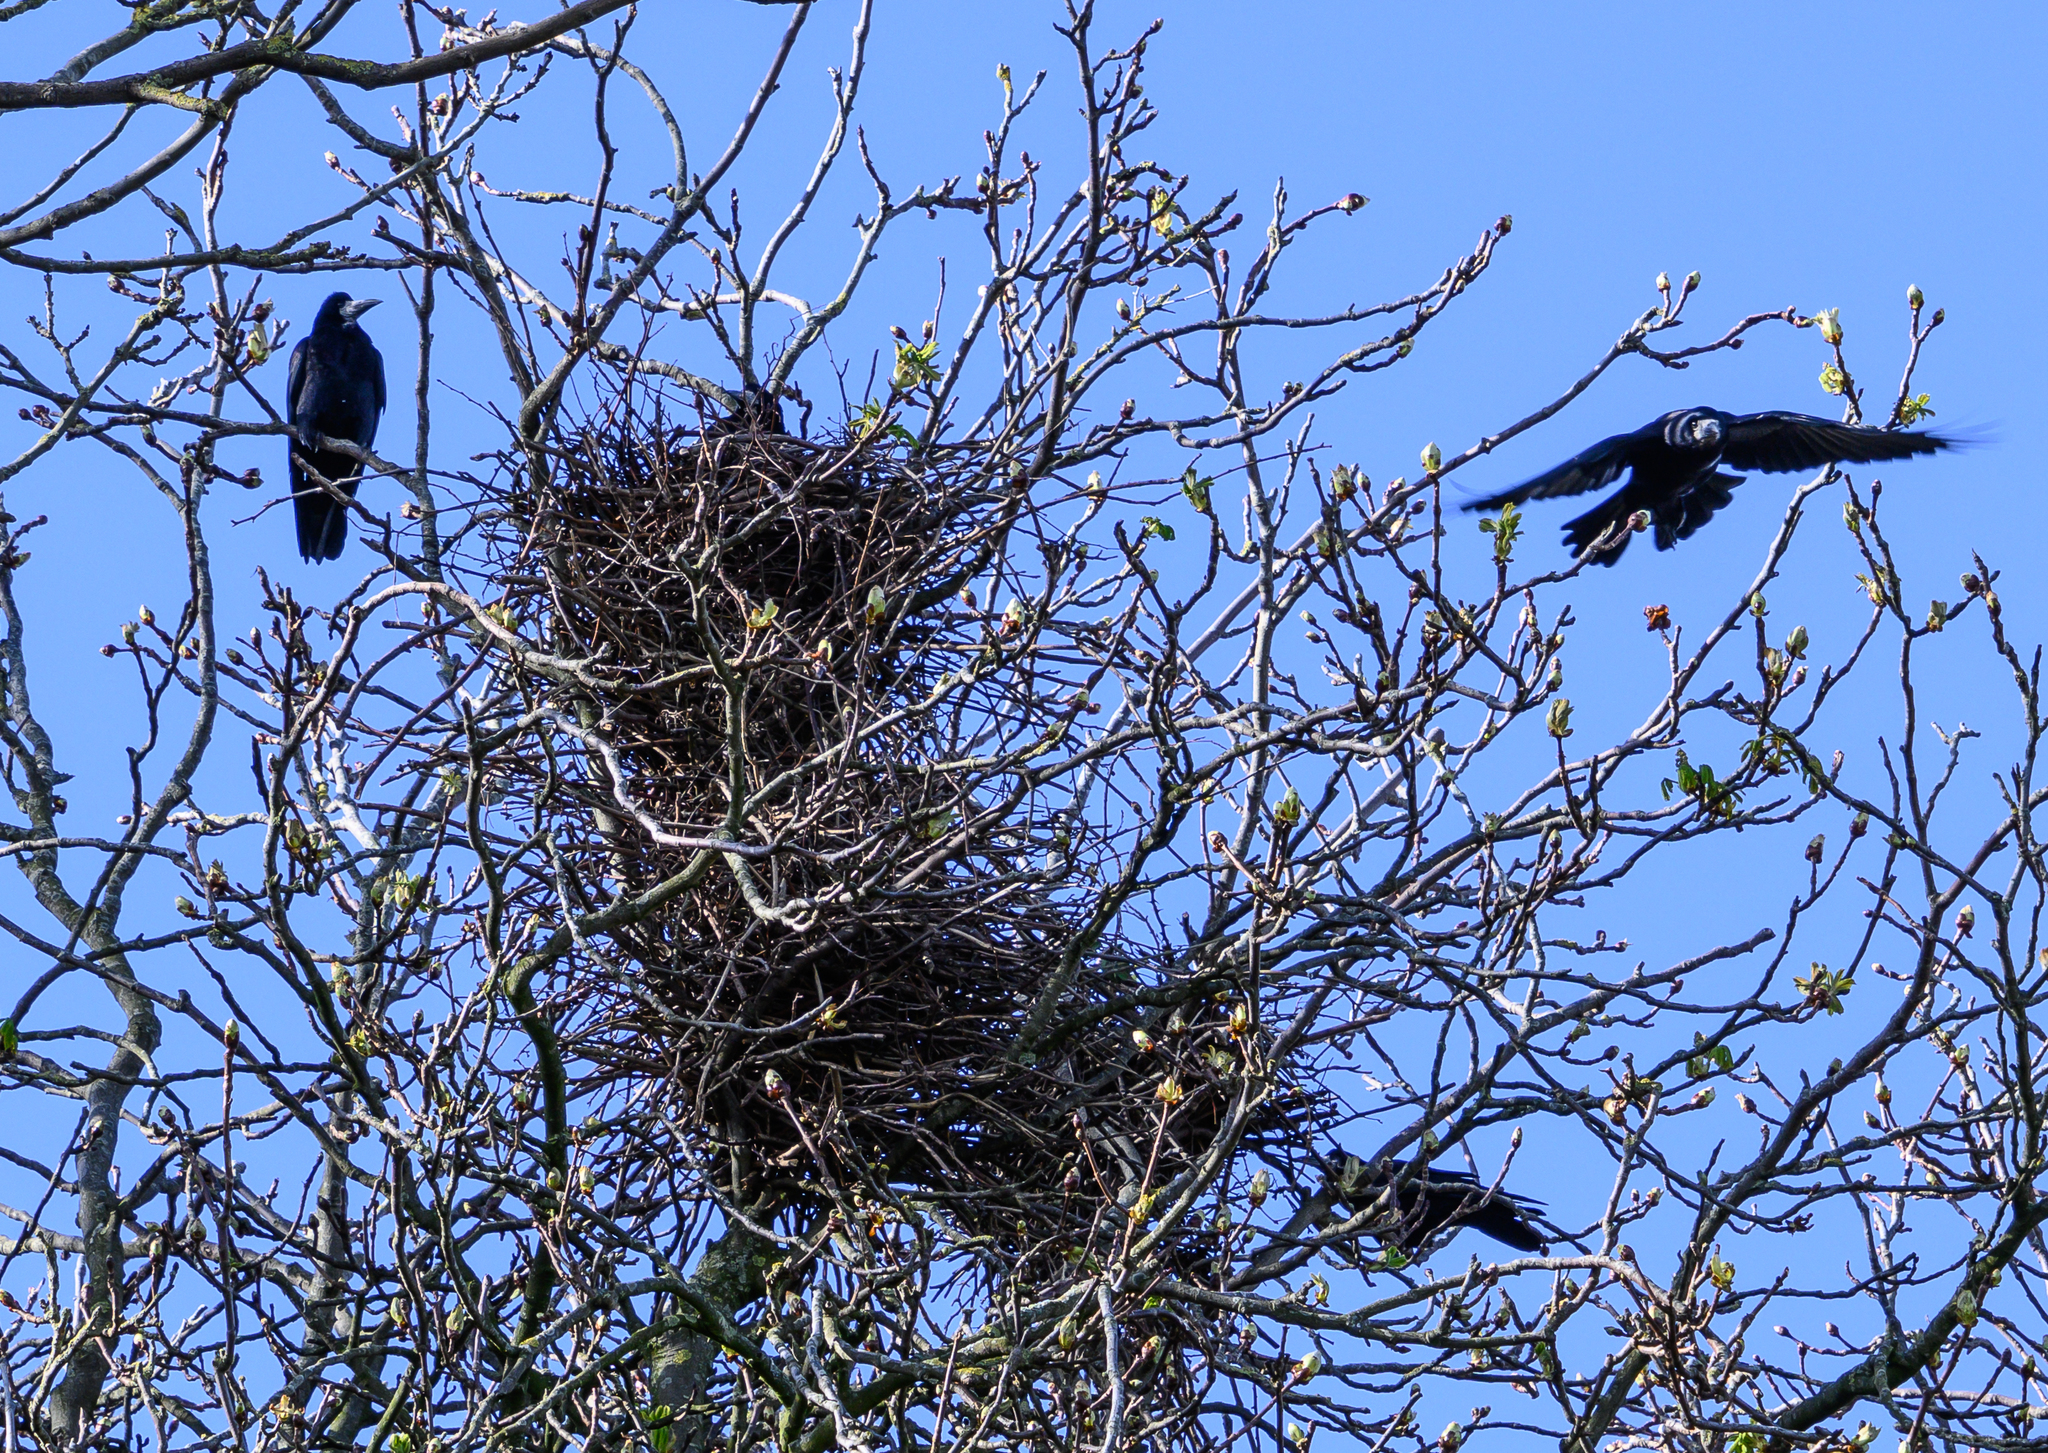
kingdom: Animalia
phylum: Chordata
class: Aves
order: Passeriformes
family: Corvidae
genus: Corvus
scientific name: Corvus frugilegus
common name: Rook
